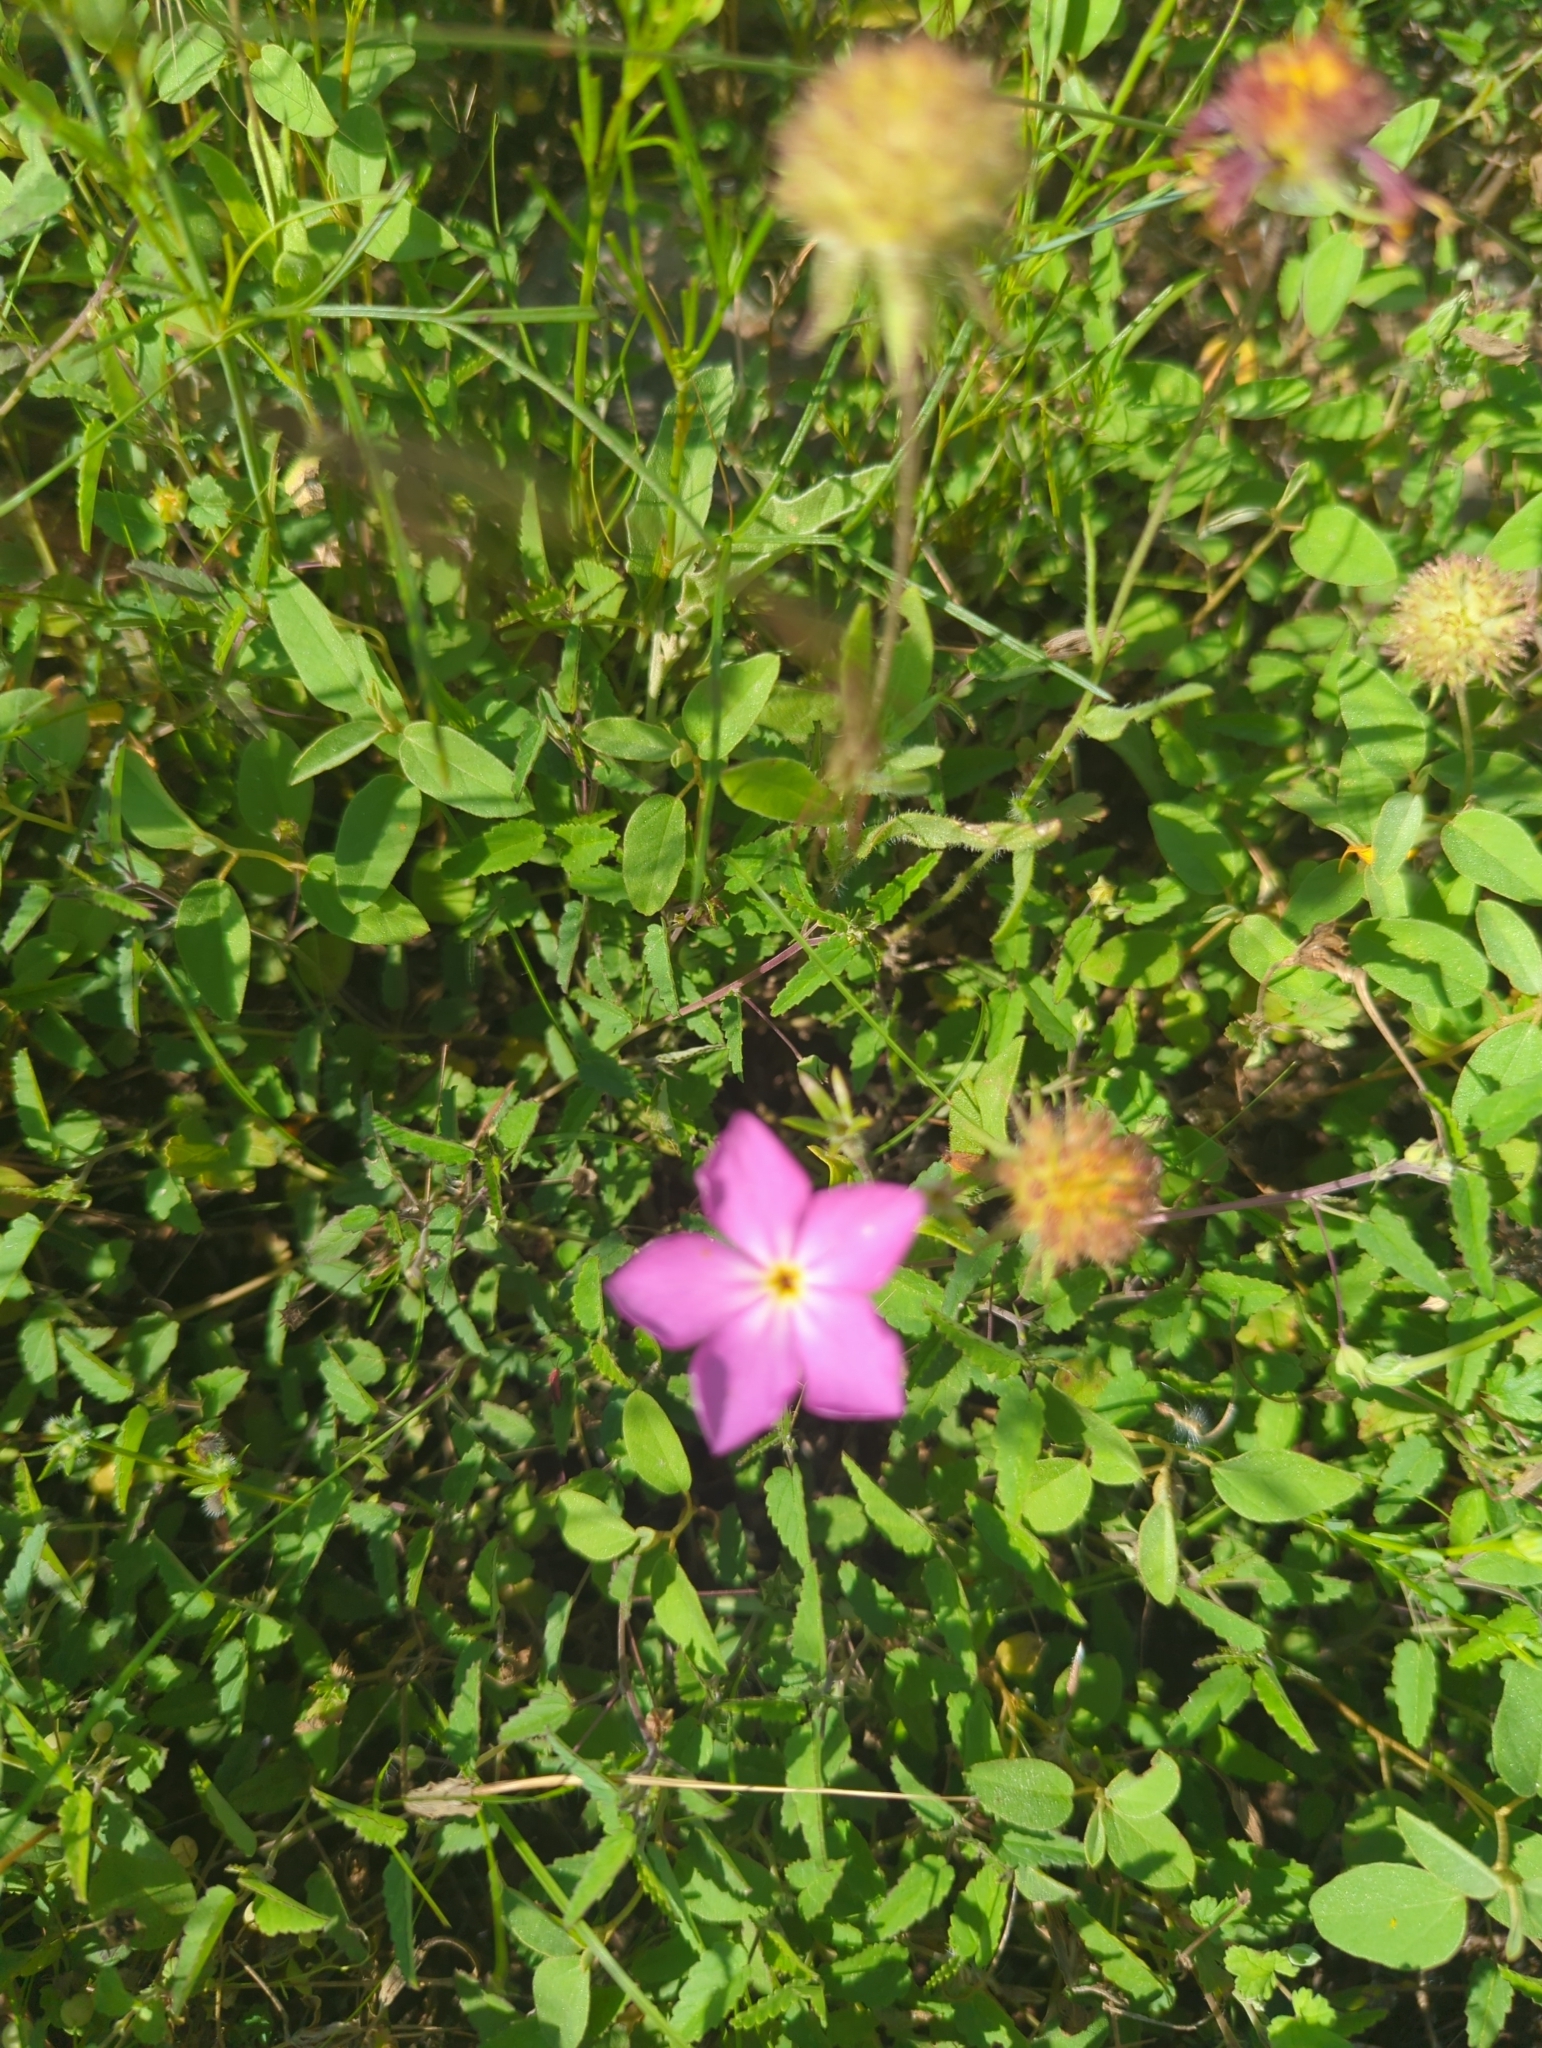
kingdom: Plantae
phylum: Tracheophyta
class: Magnoliopsida
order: Ericales
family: Polemoniaceae
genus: Phlox
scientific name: Phlox roemeriana
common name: Roemer's phlox
